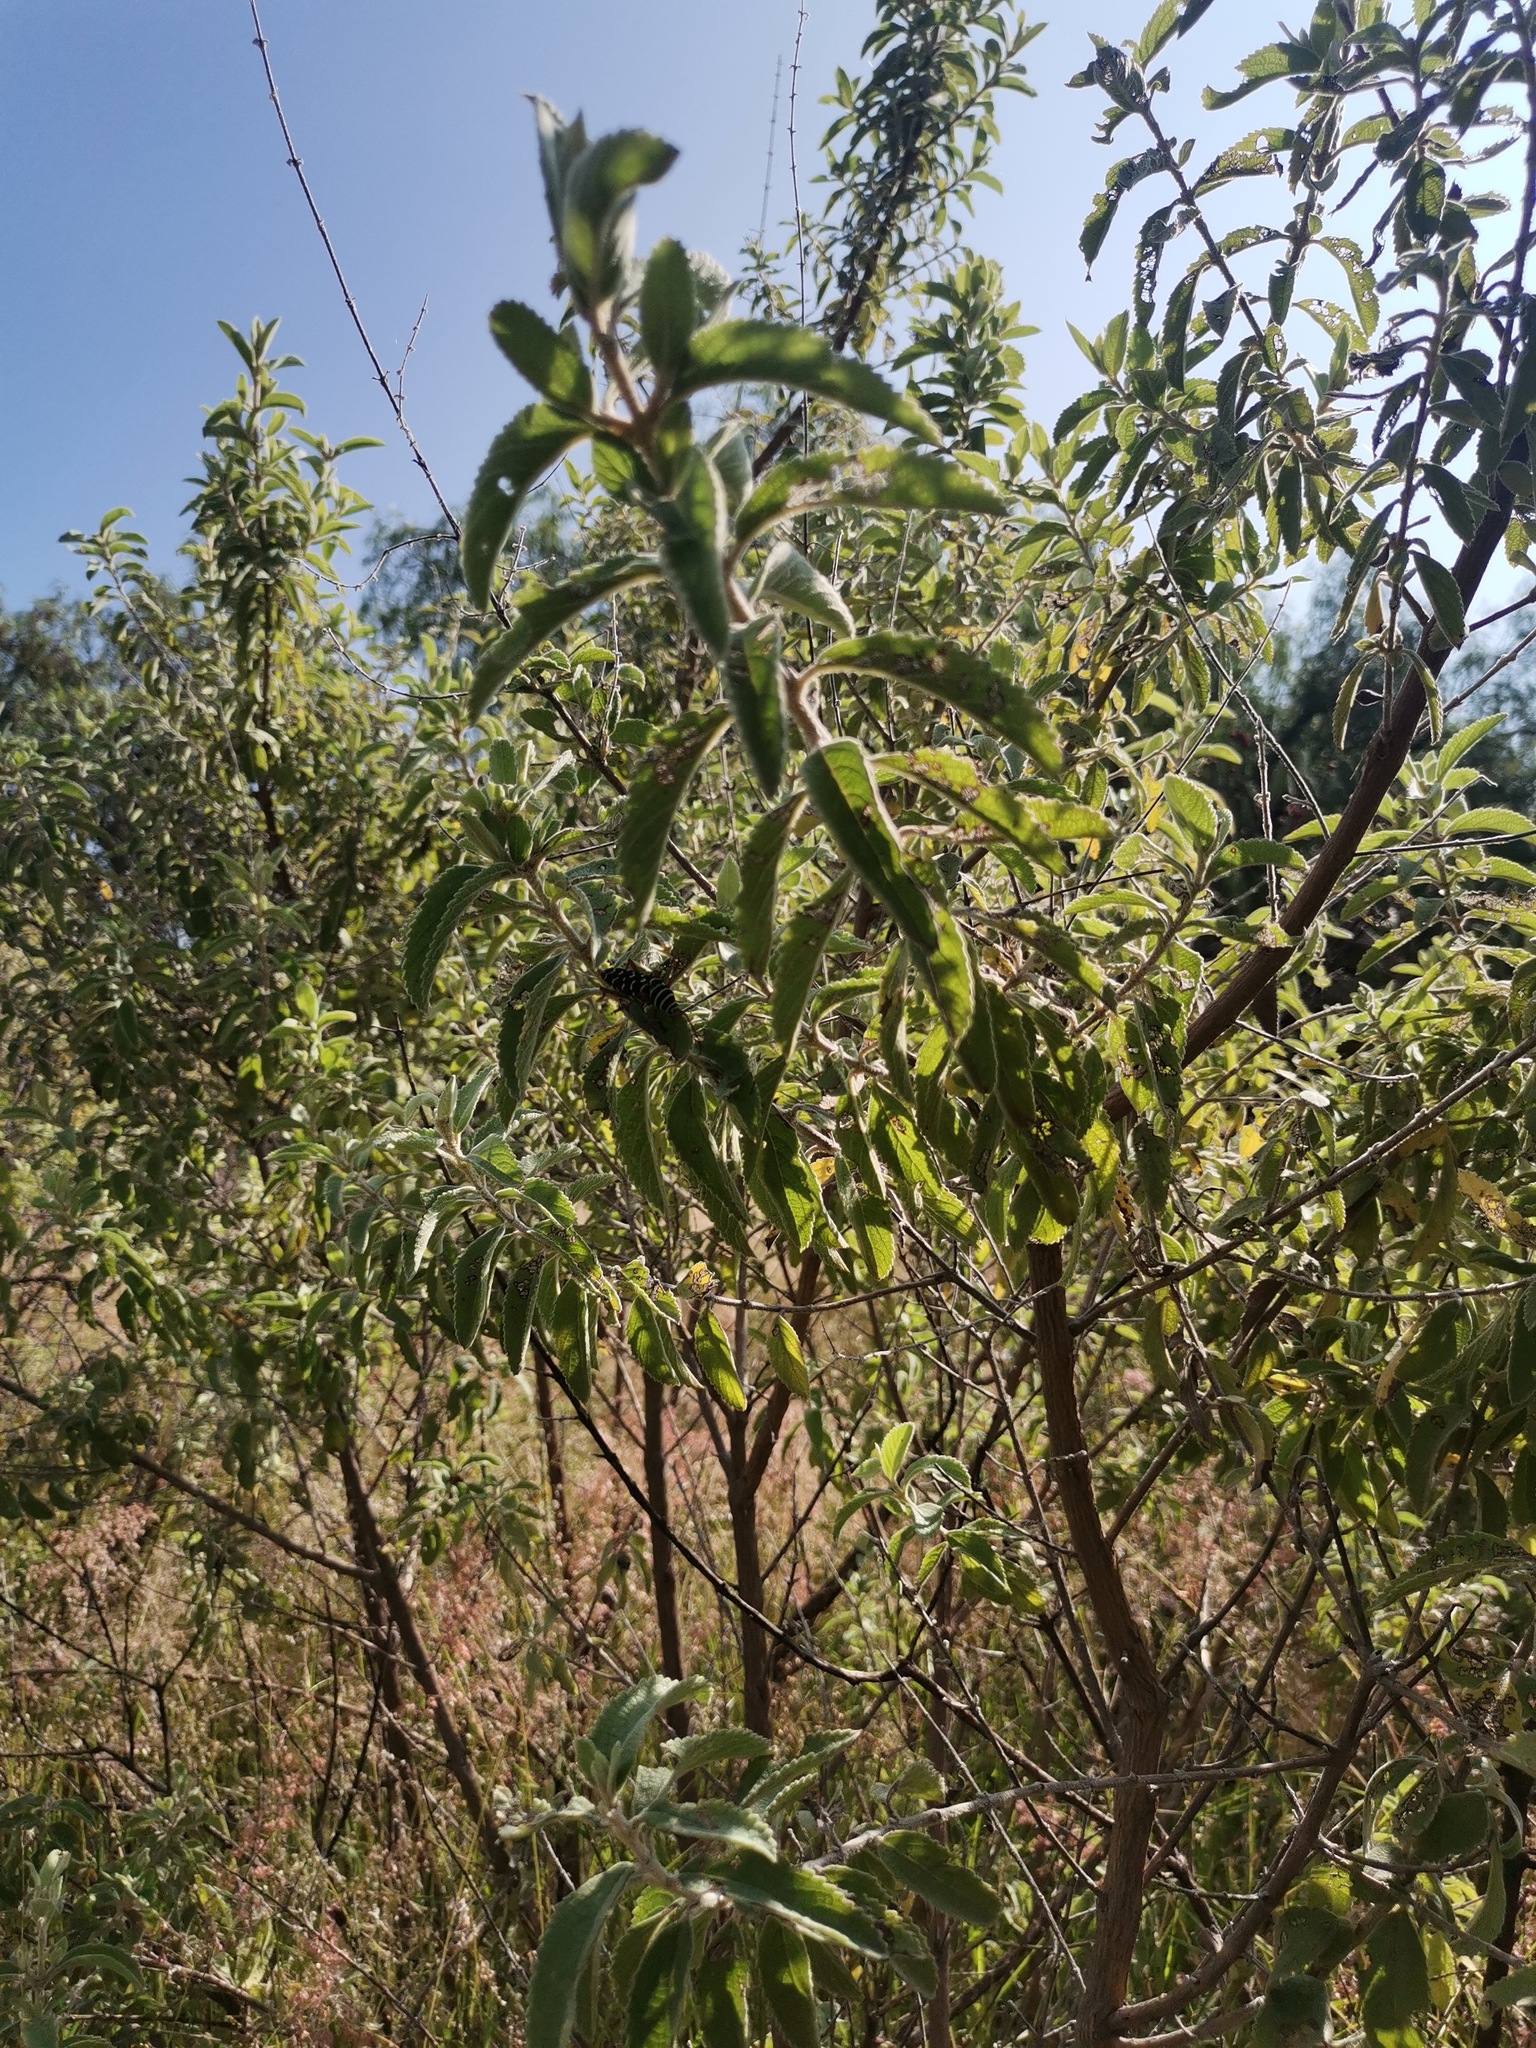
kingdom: Plantae
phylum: Tracheophyta
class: Magnoliopsida
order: Lamiales
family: Lamiaceae
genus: Condea
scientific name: Condea albida
